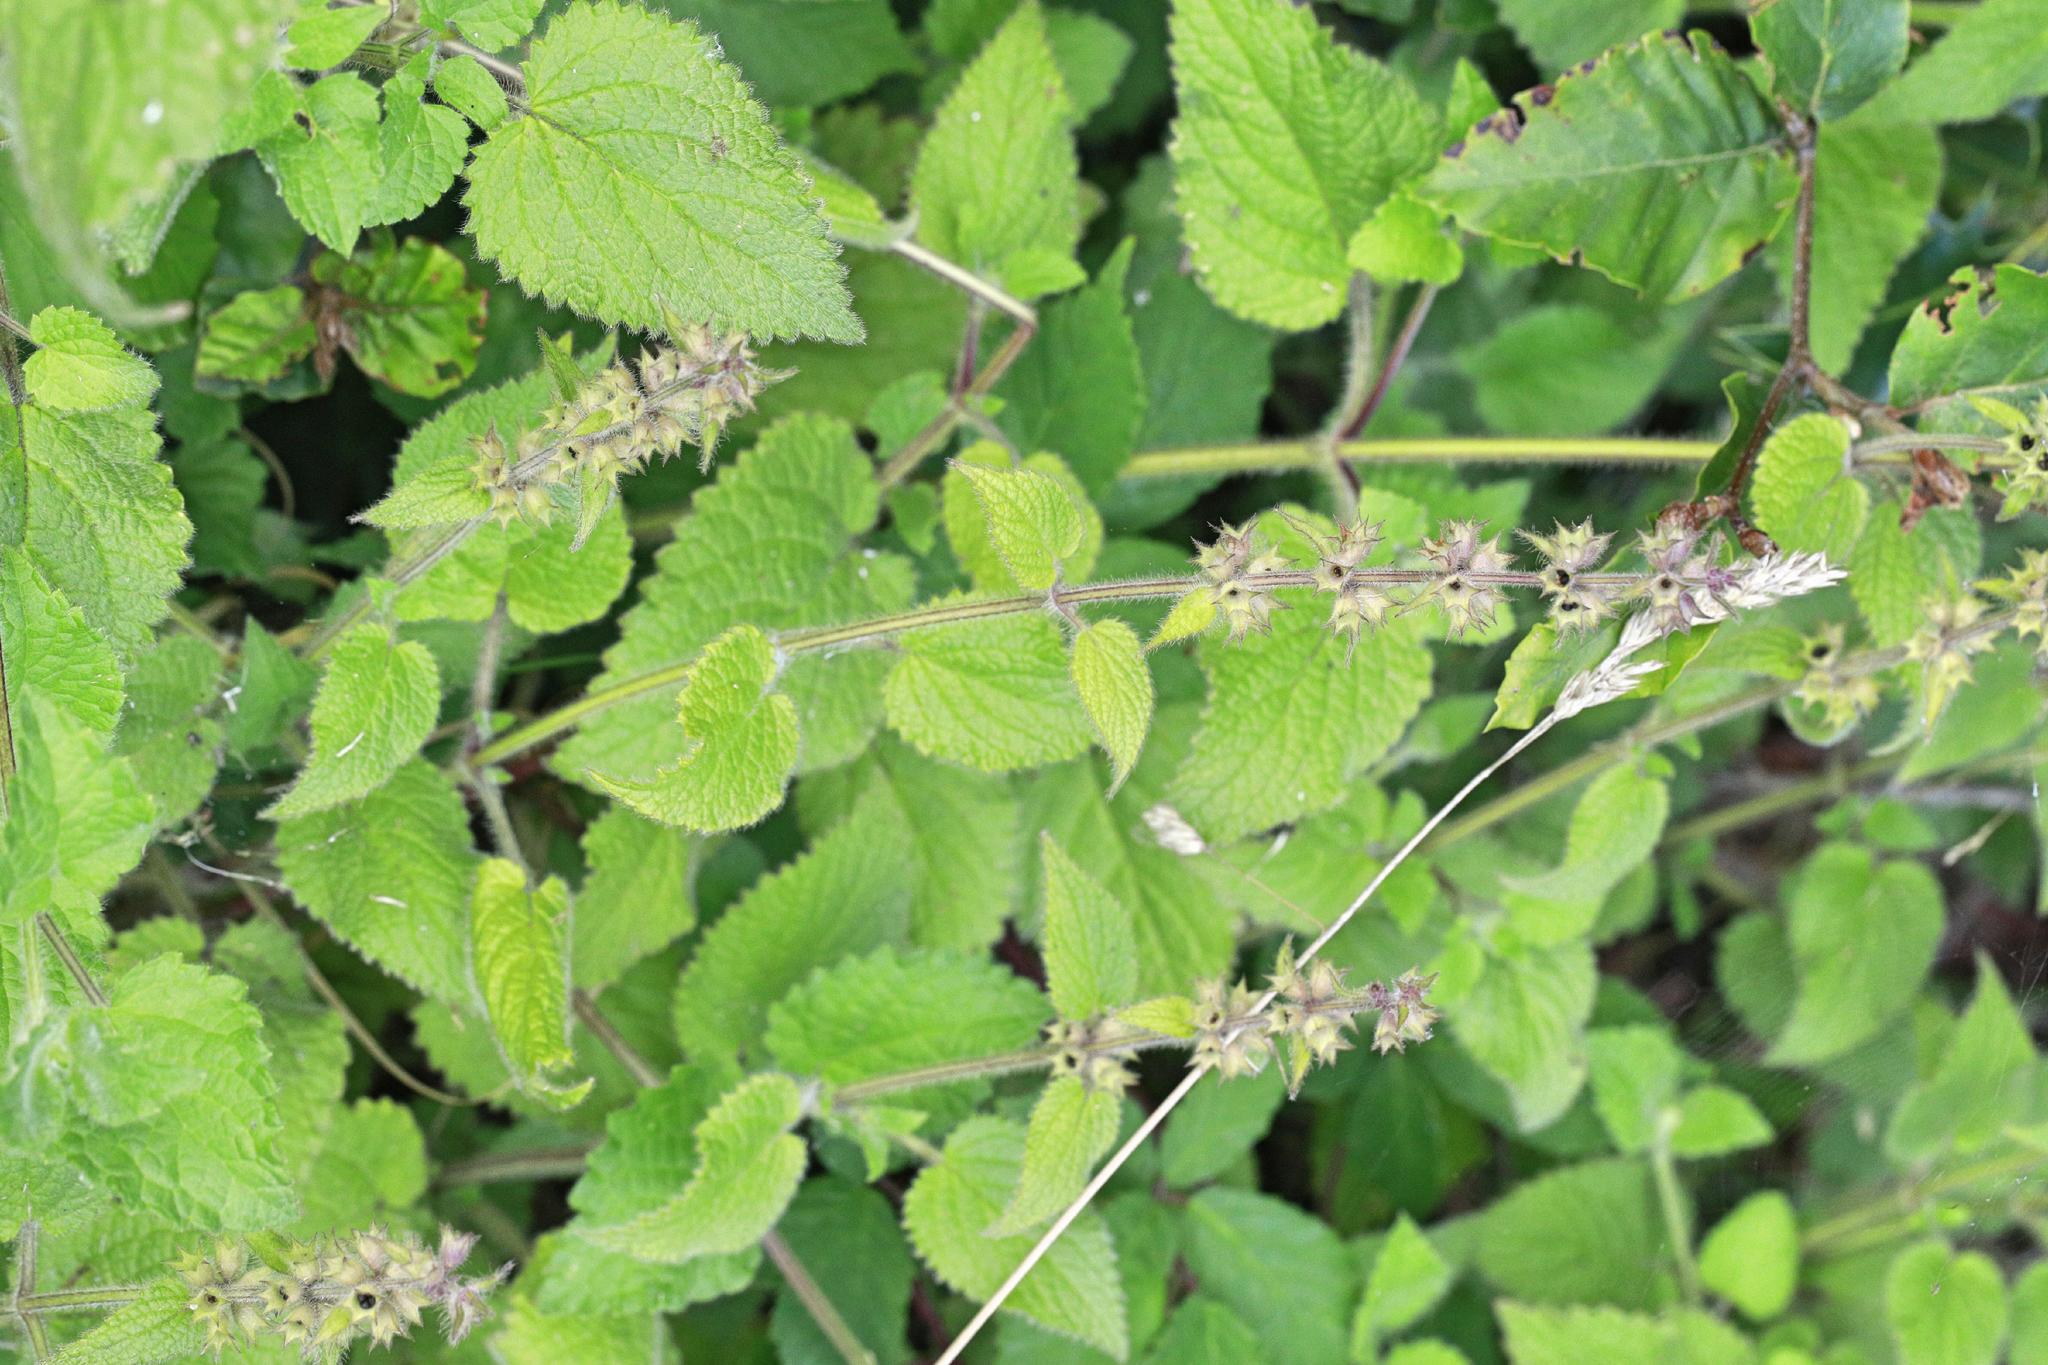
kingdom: Plantae
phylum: Tracheophyta
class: Magnoliopsida
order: Lamiales
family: Lamiaceae
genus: Stachys
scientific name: Stachys sylvatica
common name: Hedge woundwort
